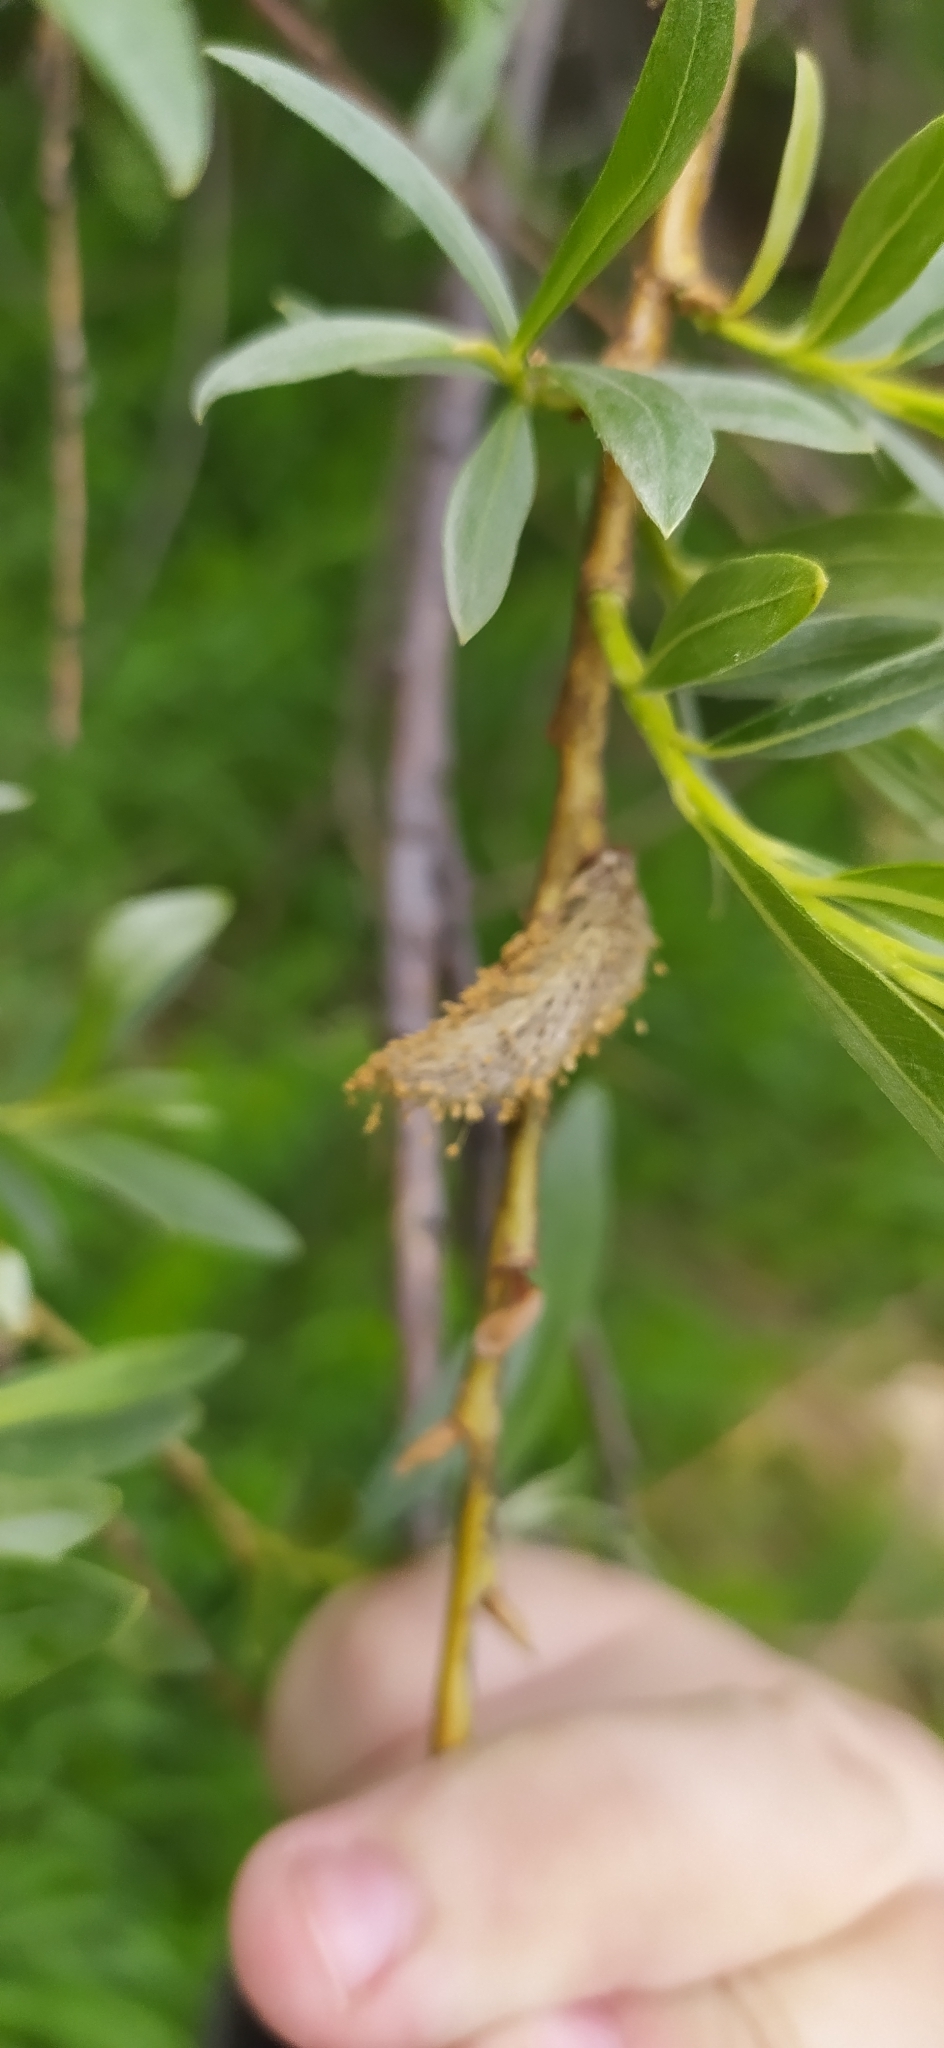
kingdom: Plantae
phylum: Tracheophyta
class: Magnoliopsida
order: Malpighiales
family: Salicaceae
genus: Salix
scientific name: Salix viminalis
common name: Osier
